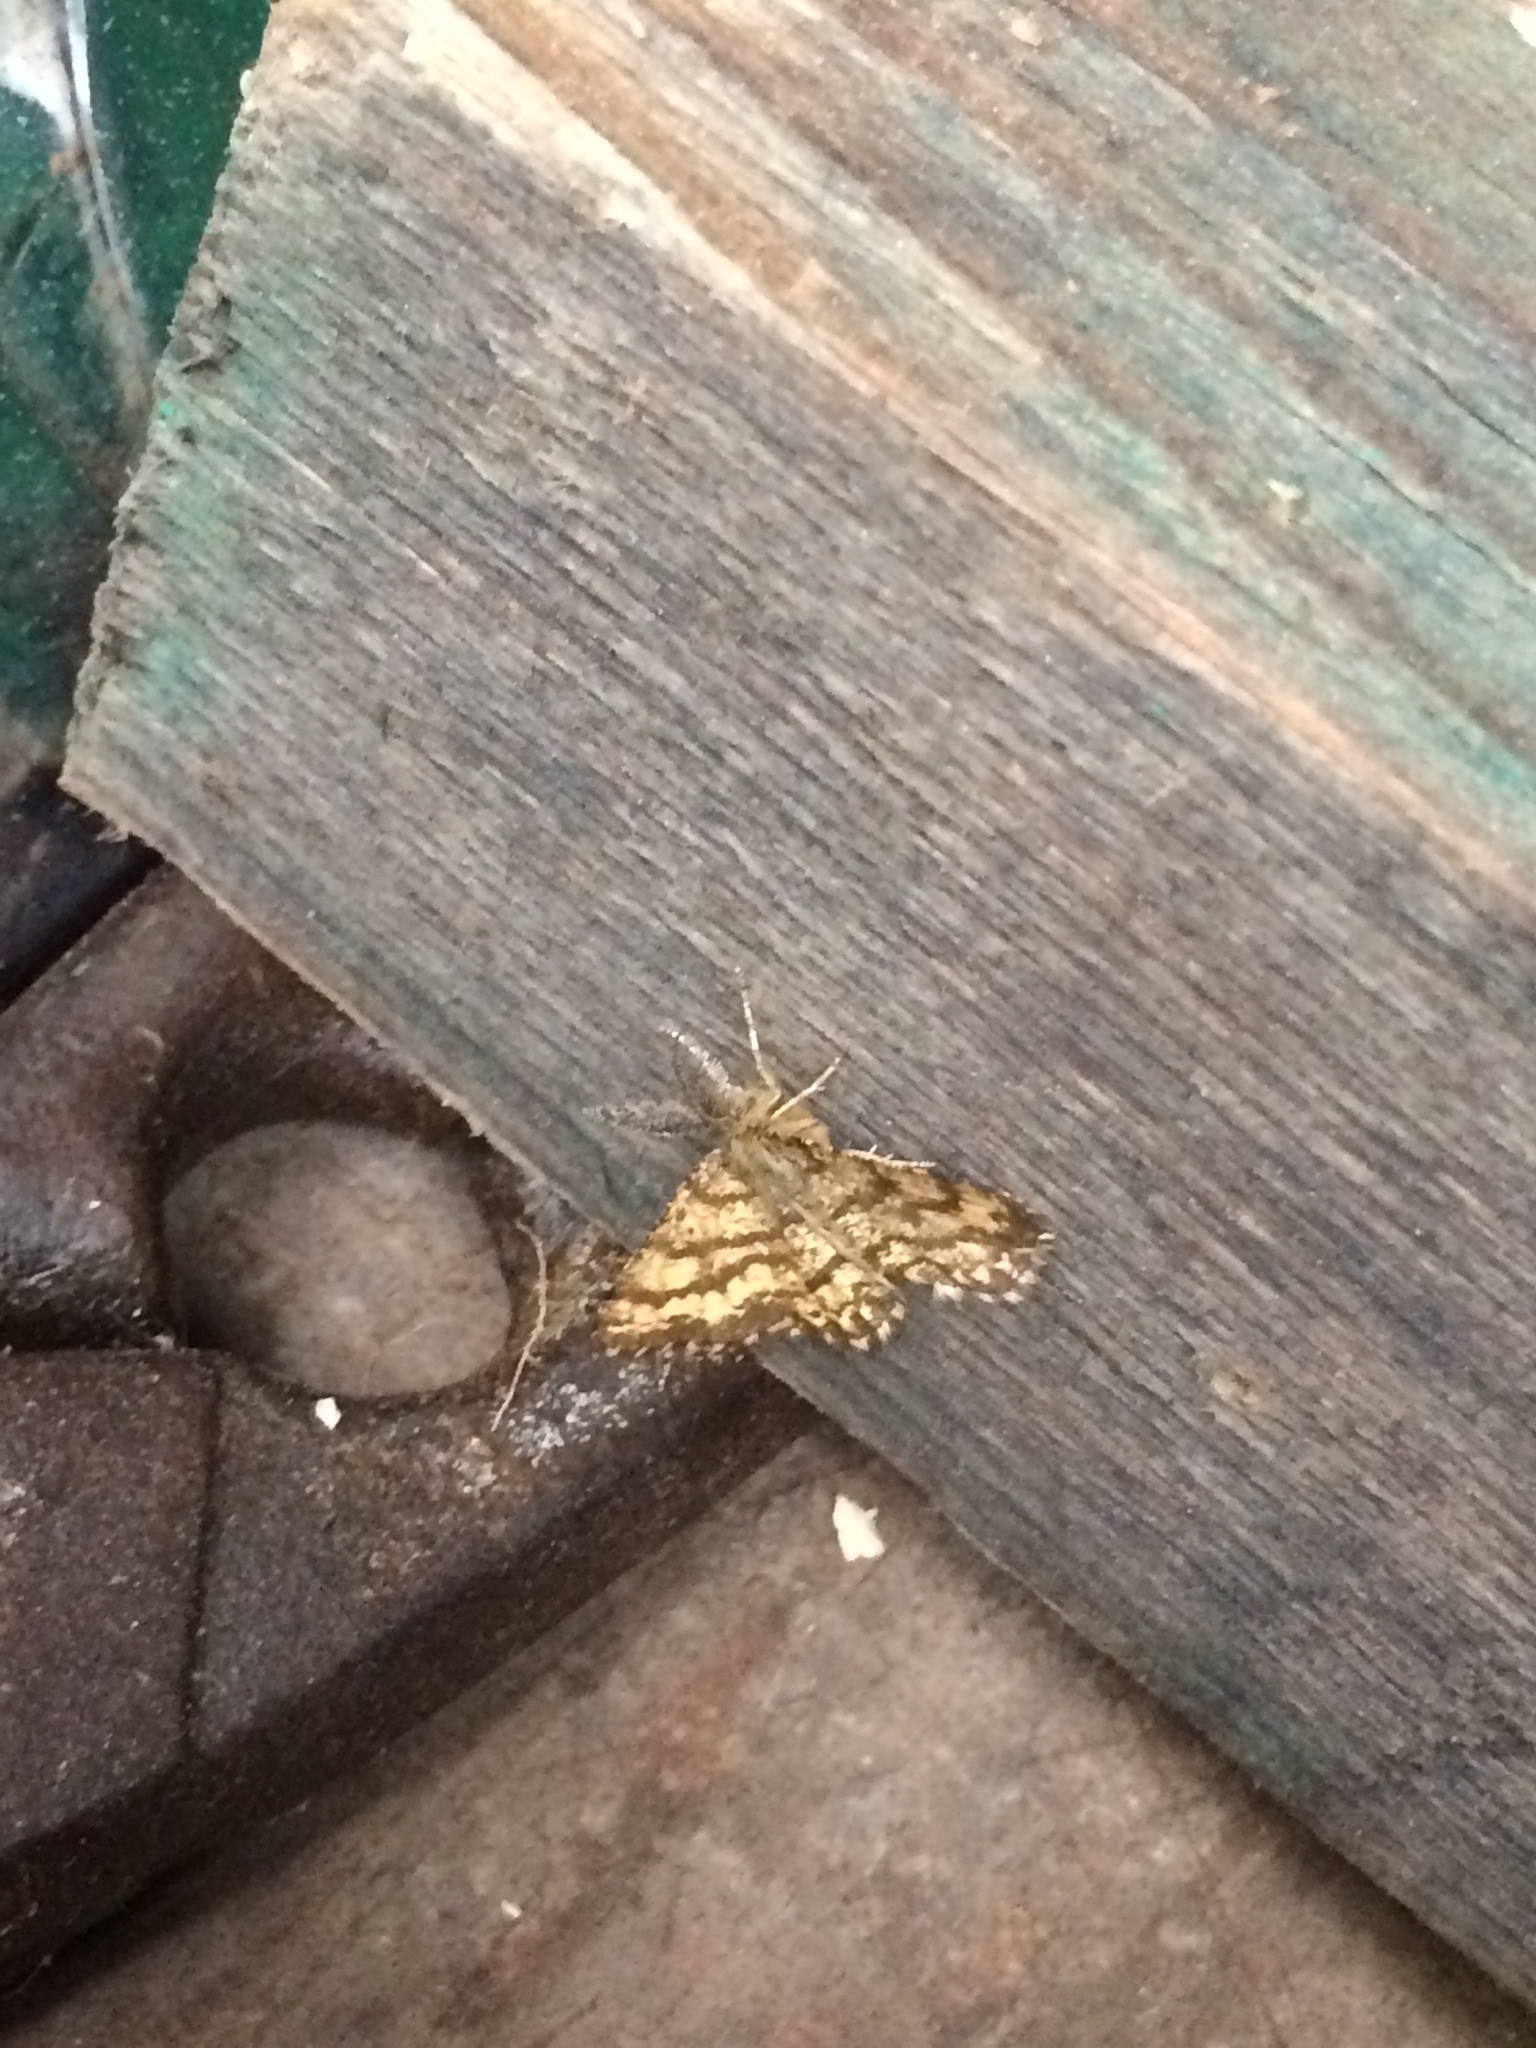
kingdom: Animalia
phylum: Arthropoda
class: Insecta
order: Lepidoptera
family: Geometridae
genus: Ematurga
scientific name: Ematurga atomaria
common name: Common heath
